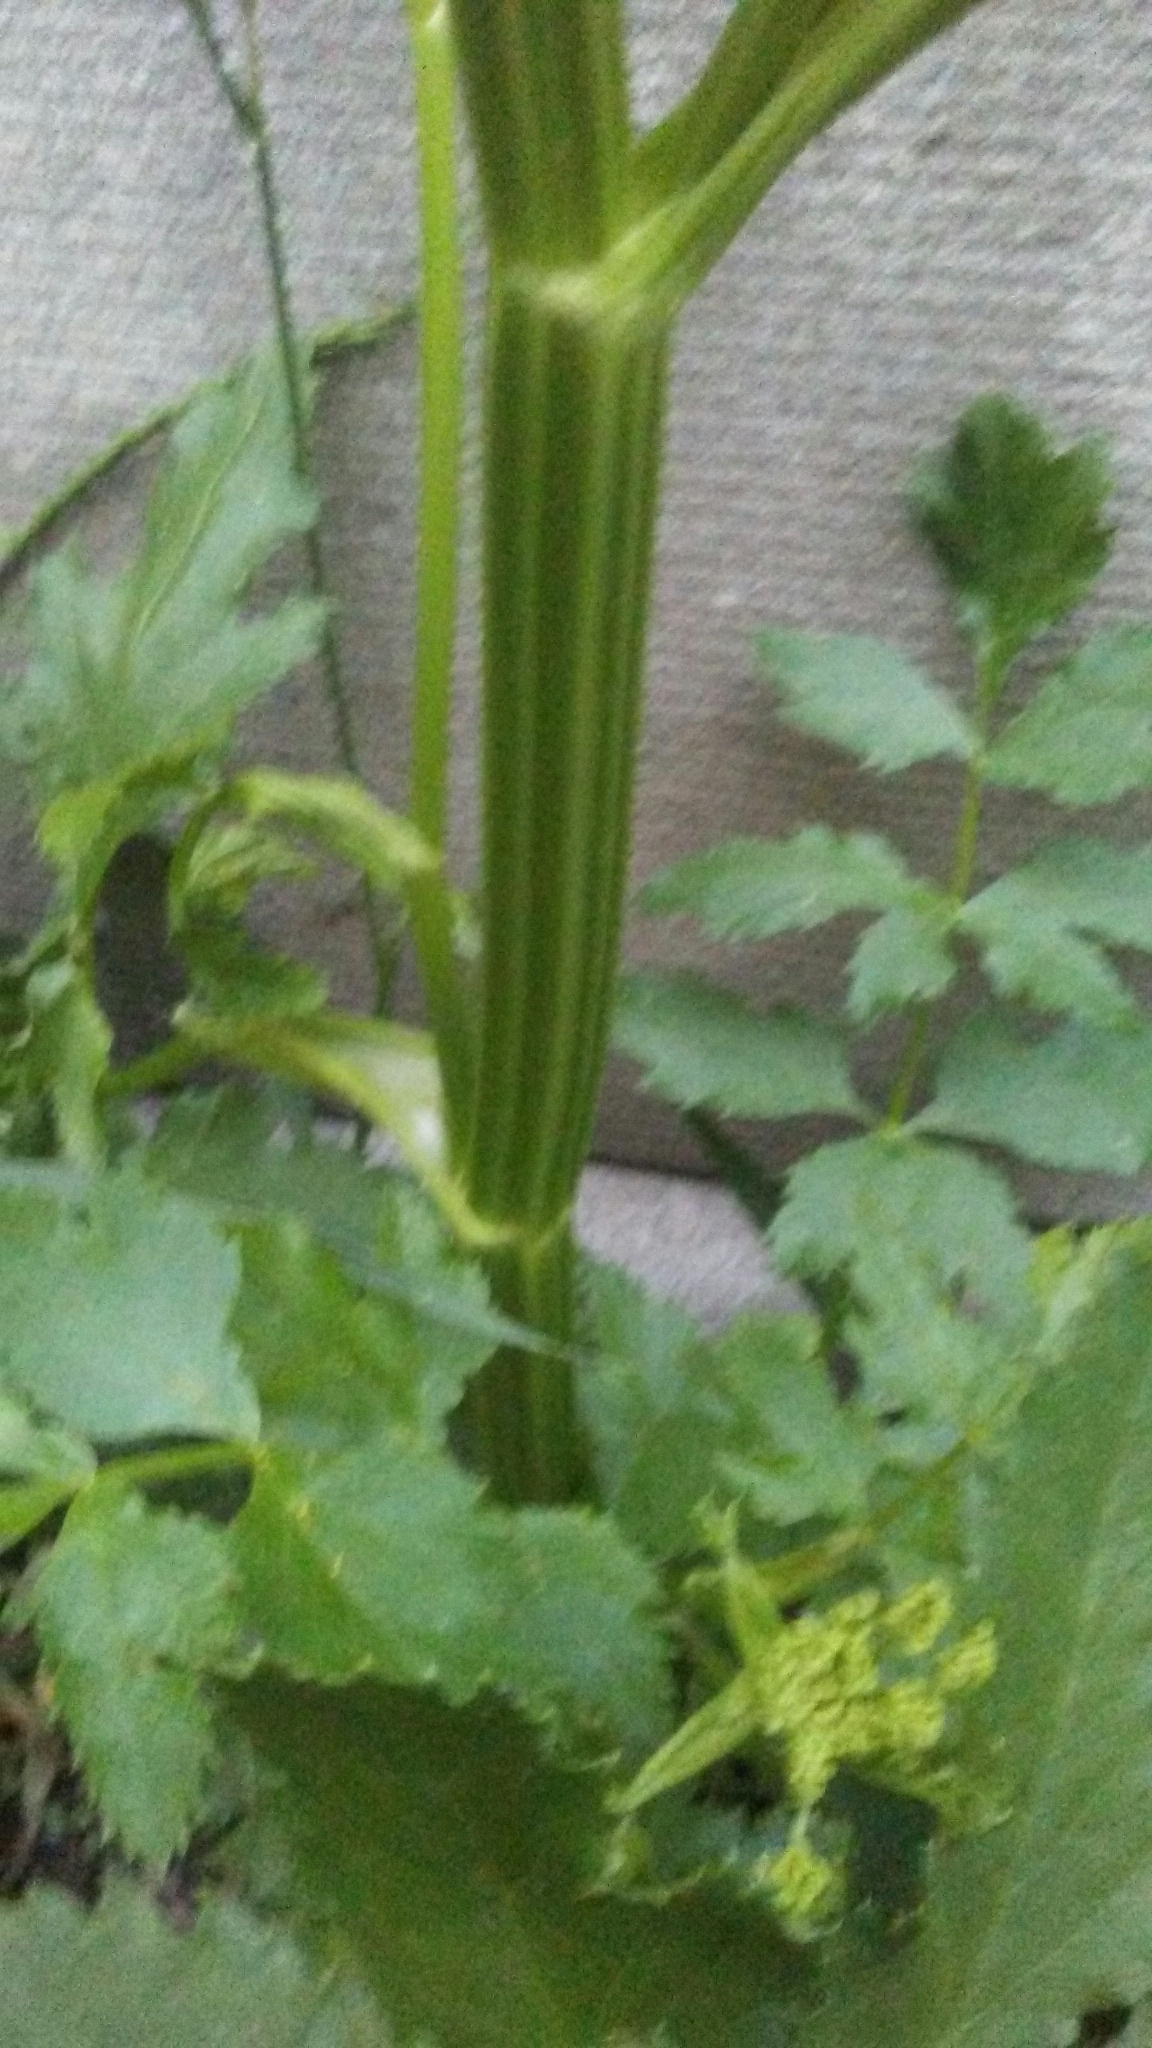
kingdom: Plantae
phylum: Tracheophyta
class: Magnoliopsida
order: Apiales
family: Apiaceae
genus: Pastinaca
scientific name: Pastinaca sativa
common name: Wild parsnip
